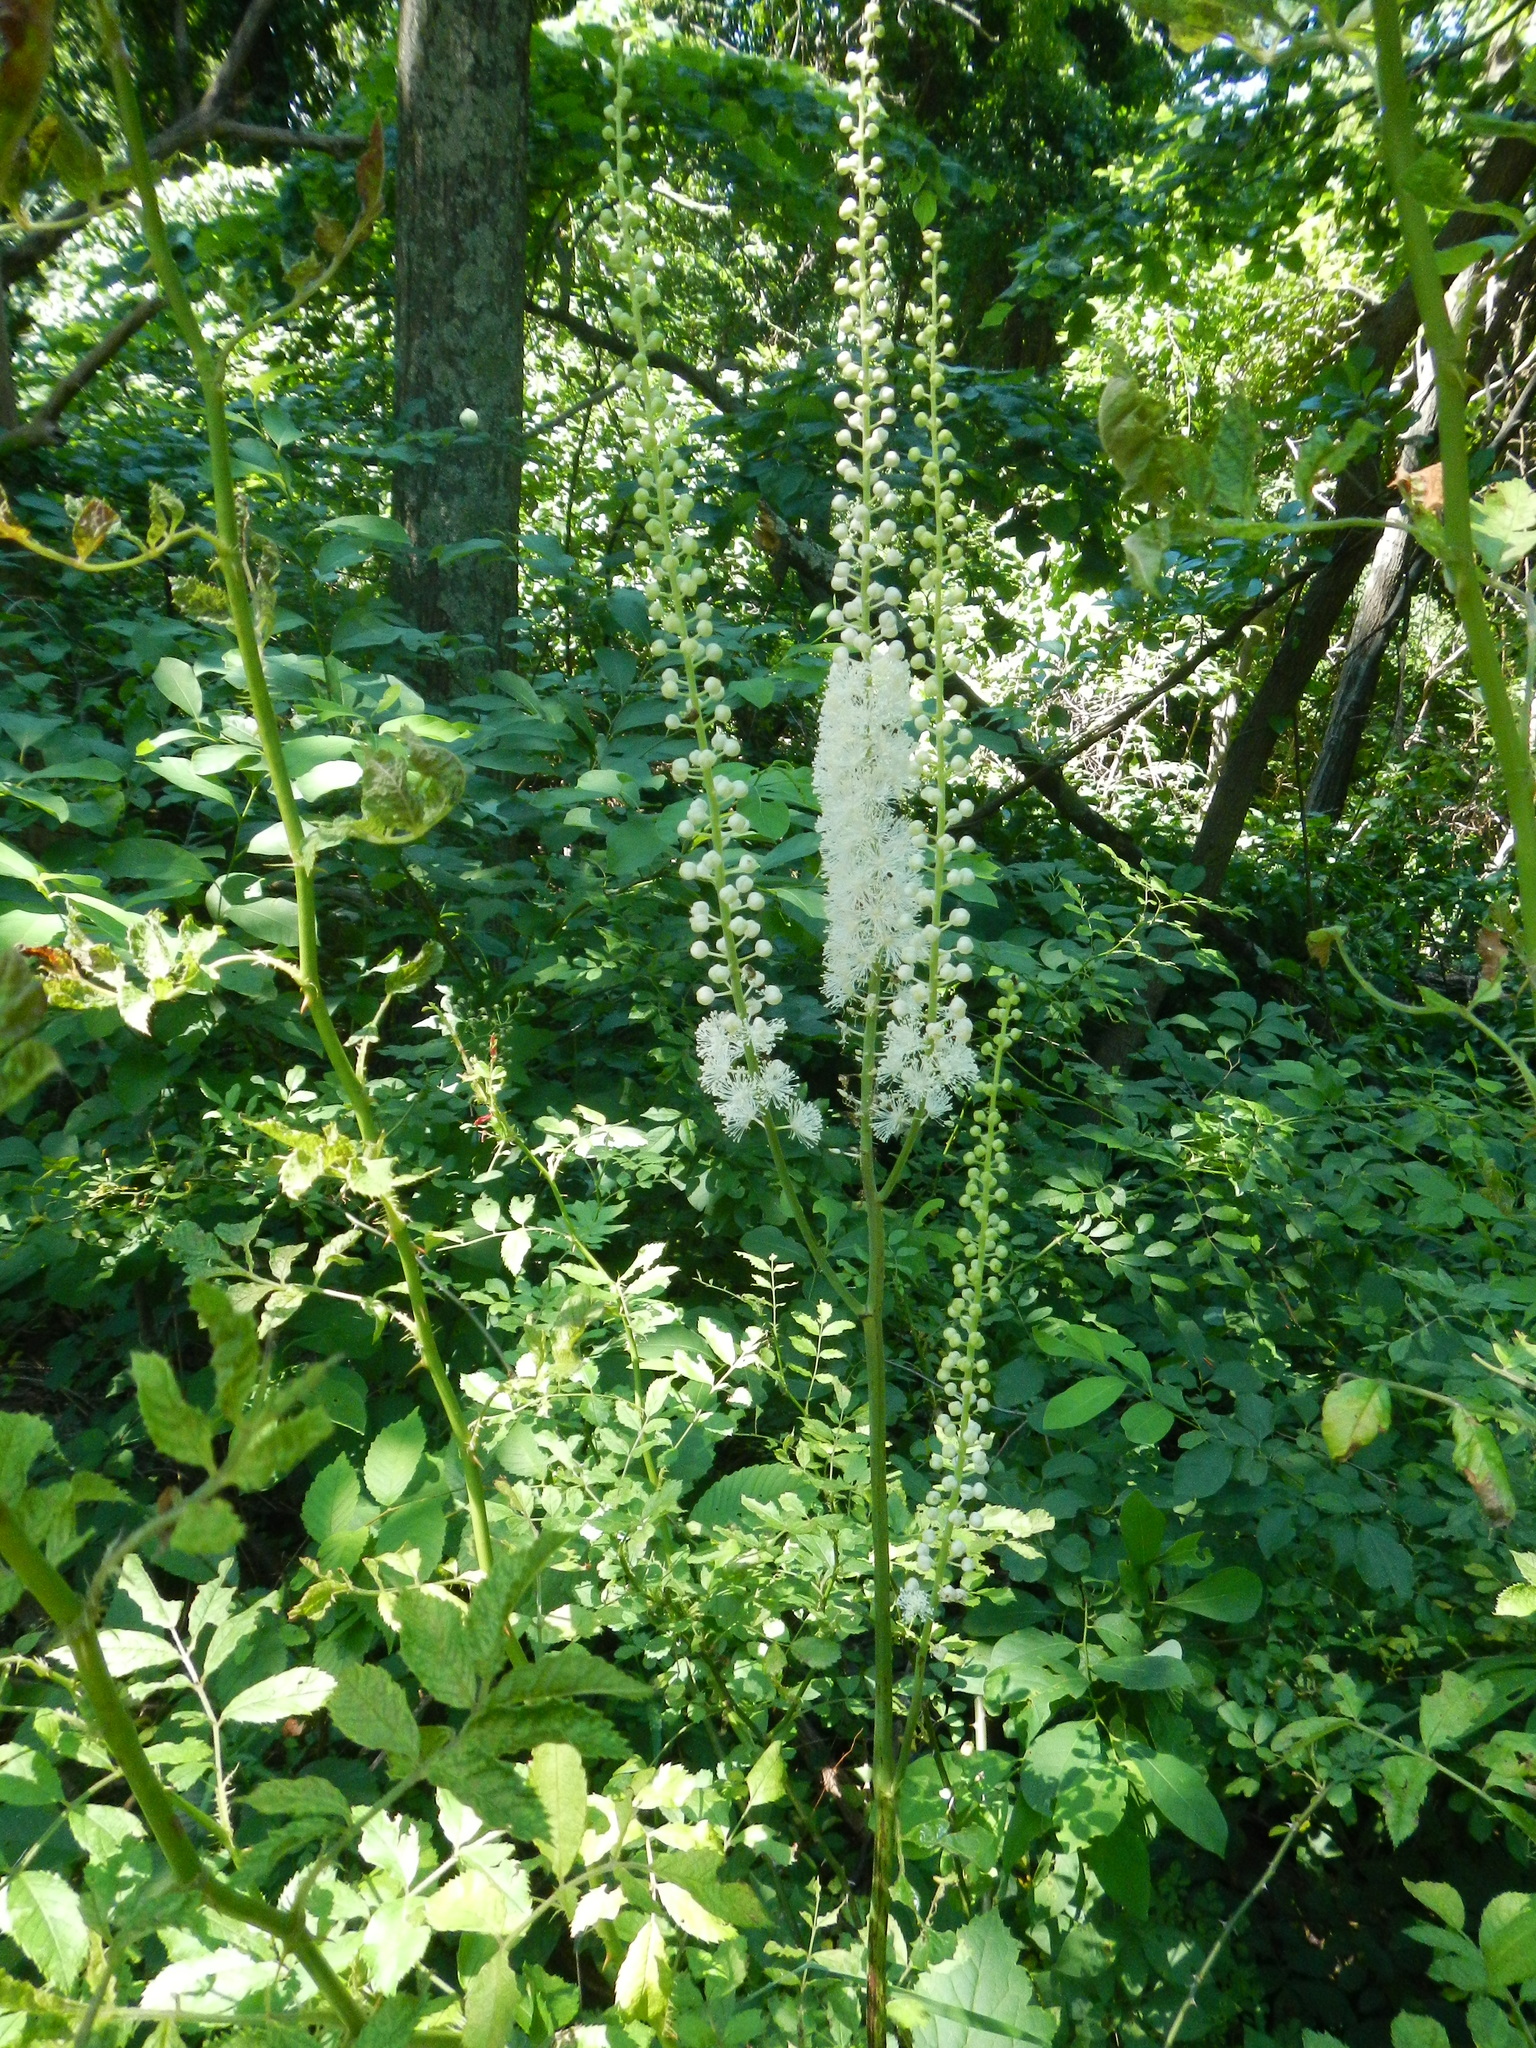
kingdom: Plantae
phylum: Tracheophyta
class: Magnoliopsida
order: Ranunculales
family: Ranunculaceae
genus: Actaea
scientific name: Actaea racemosa
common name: Black cohosh
